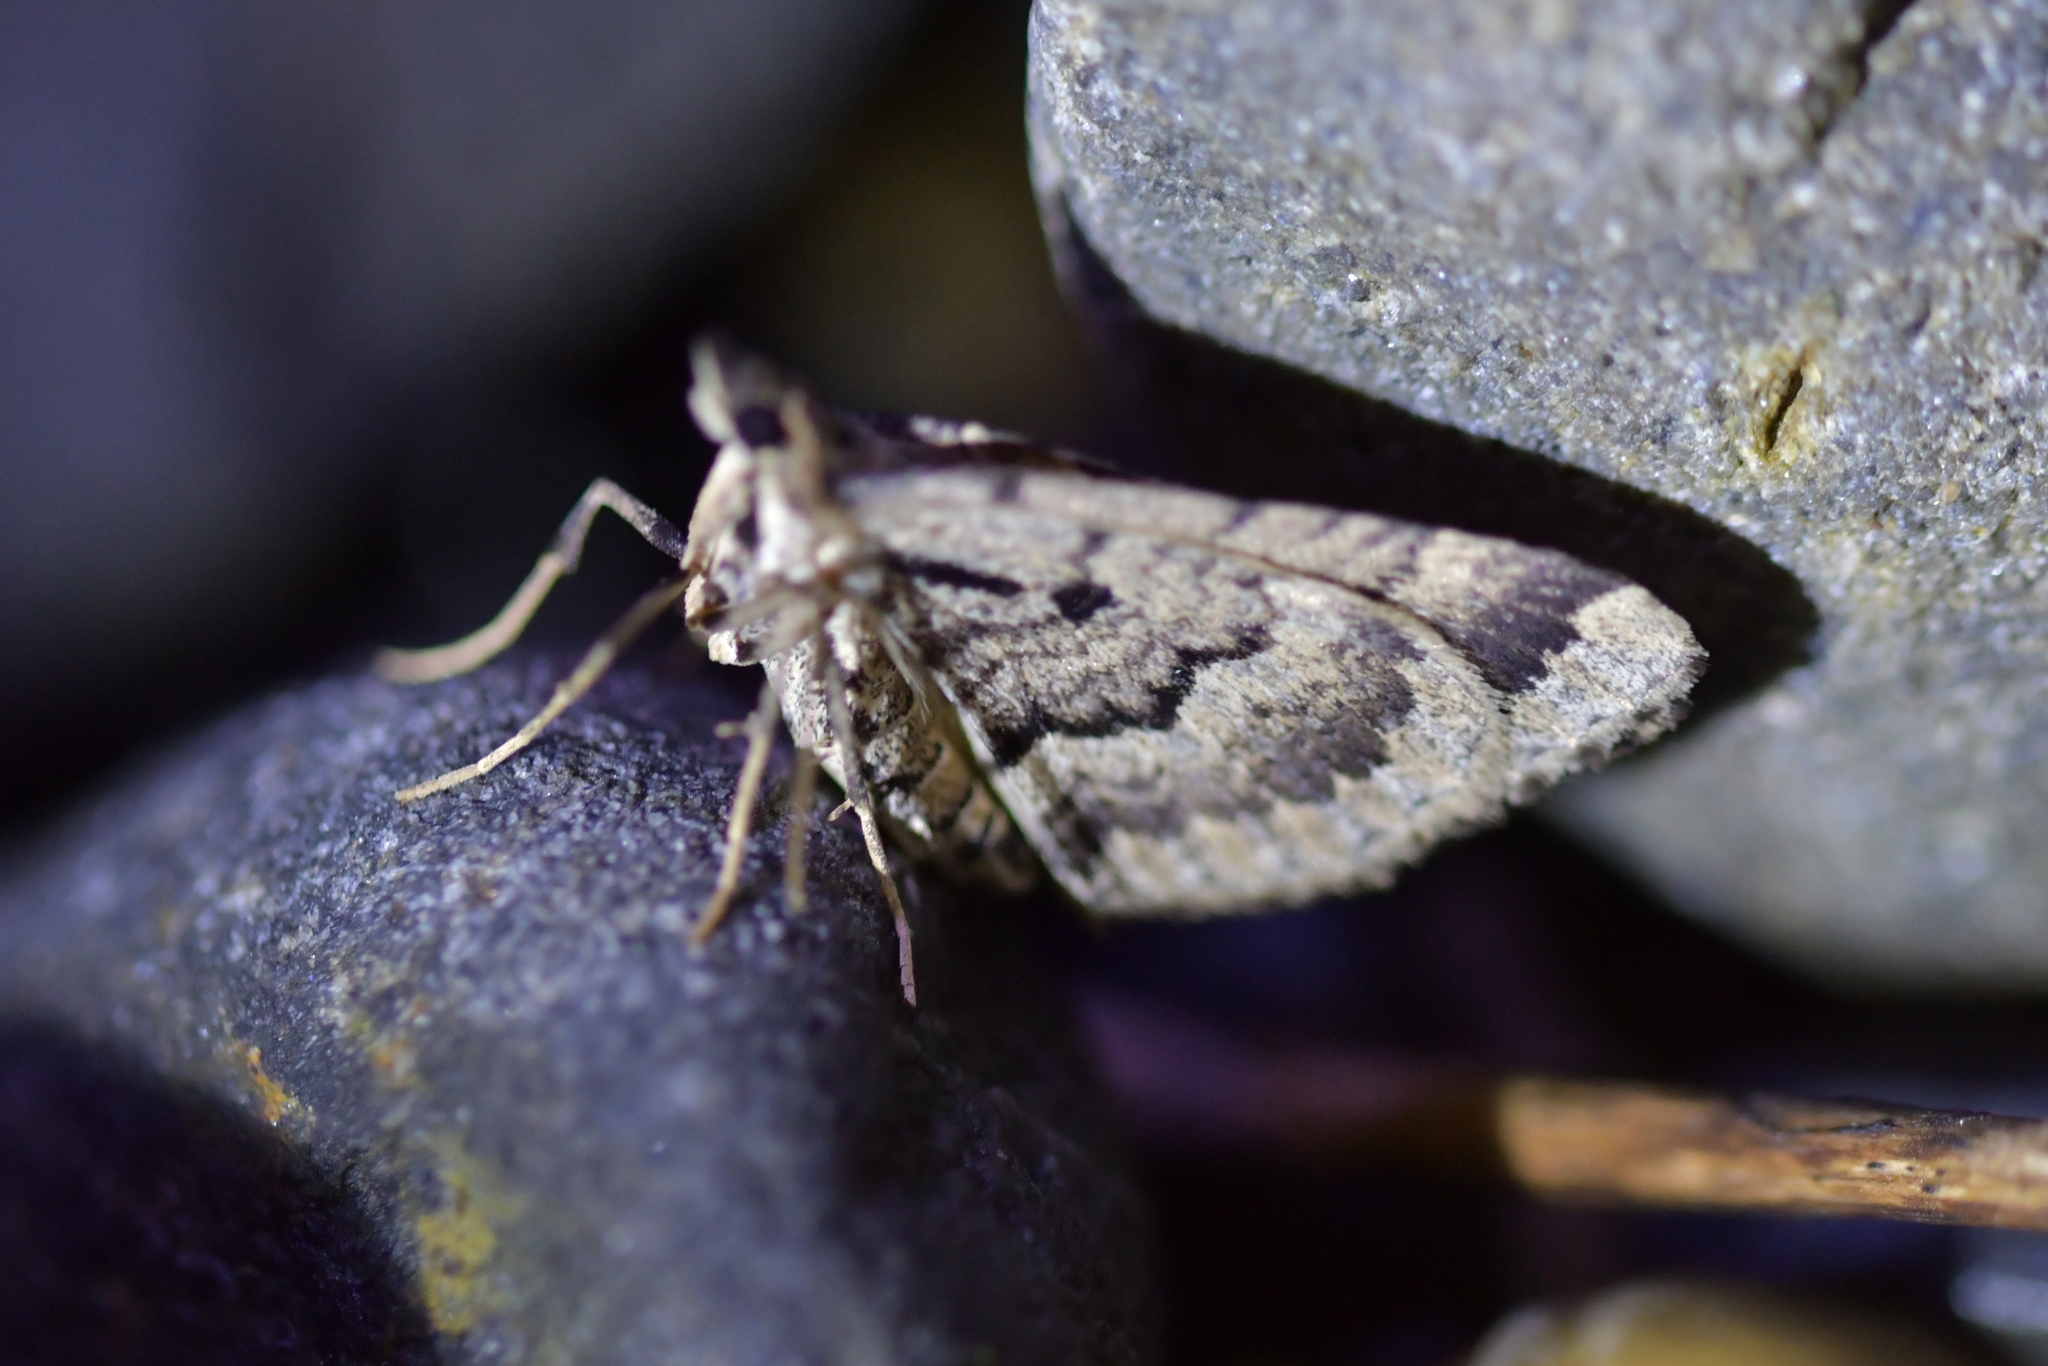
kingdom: Animalia
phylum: Arthropoda
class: Insecta
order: Lepidoptera
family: Geometridae
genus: Asaphodes
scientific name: Asaphodes aegrota
